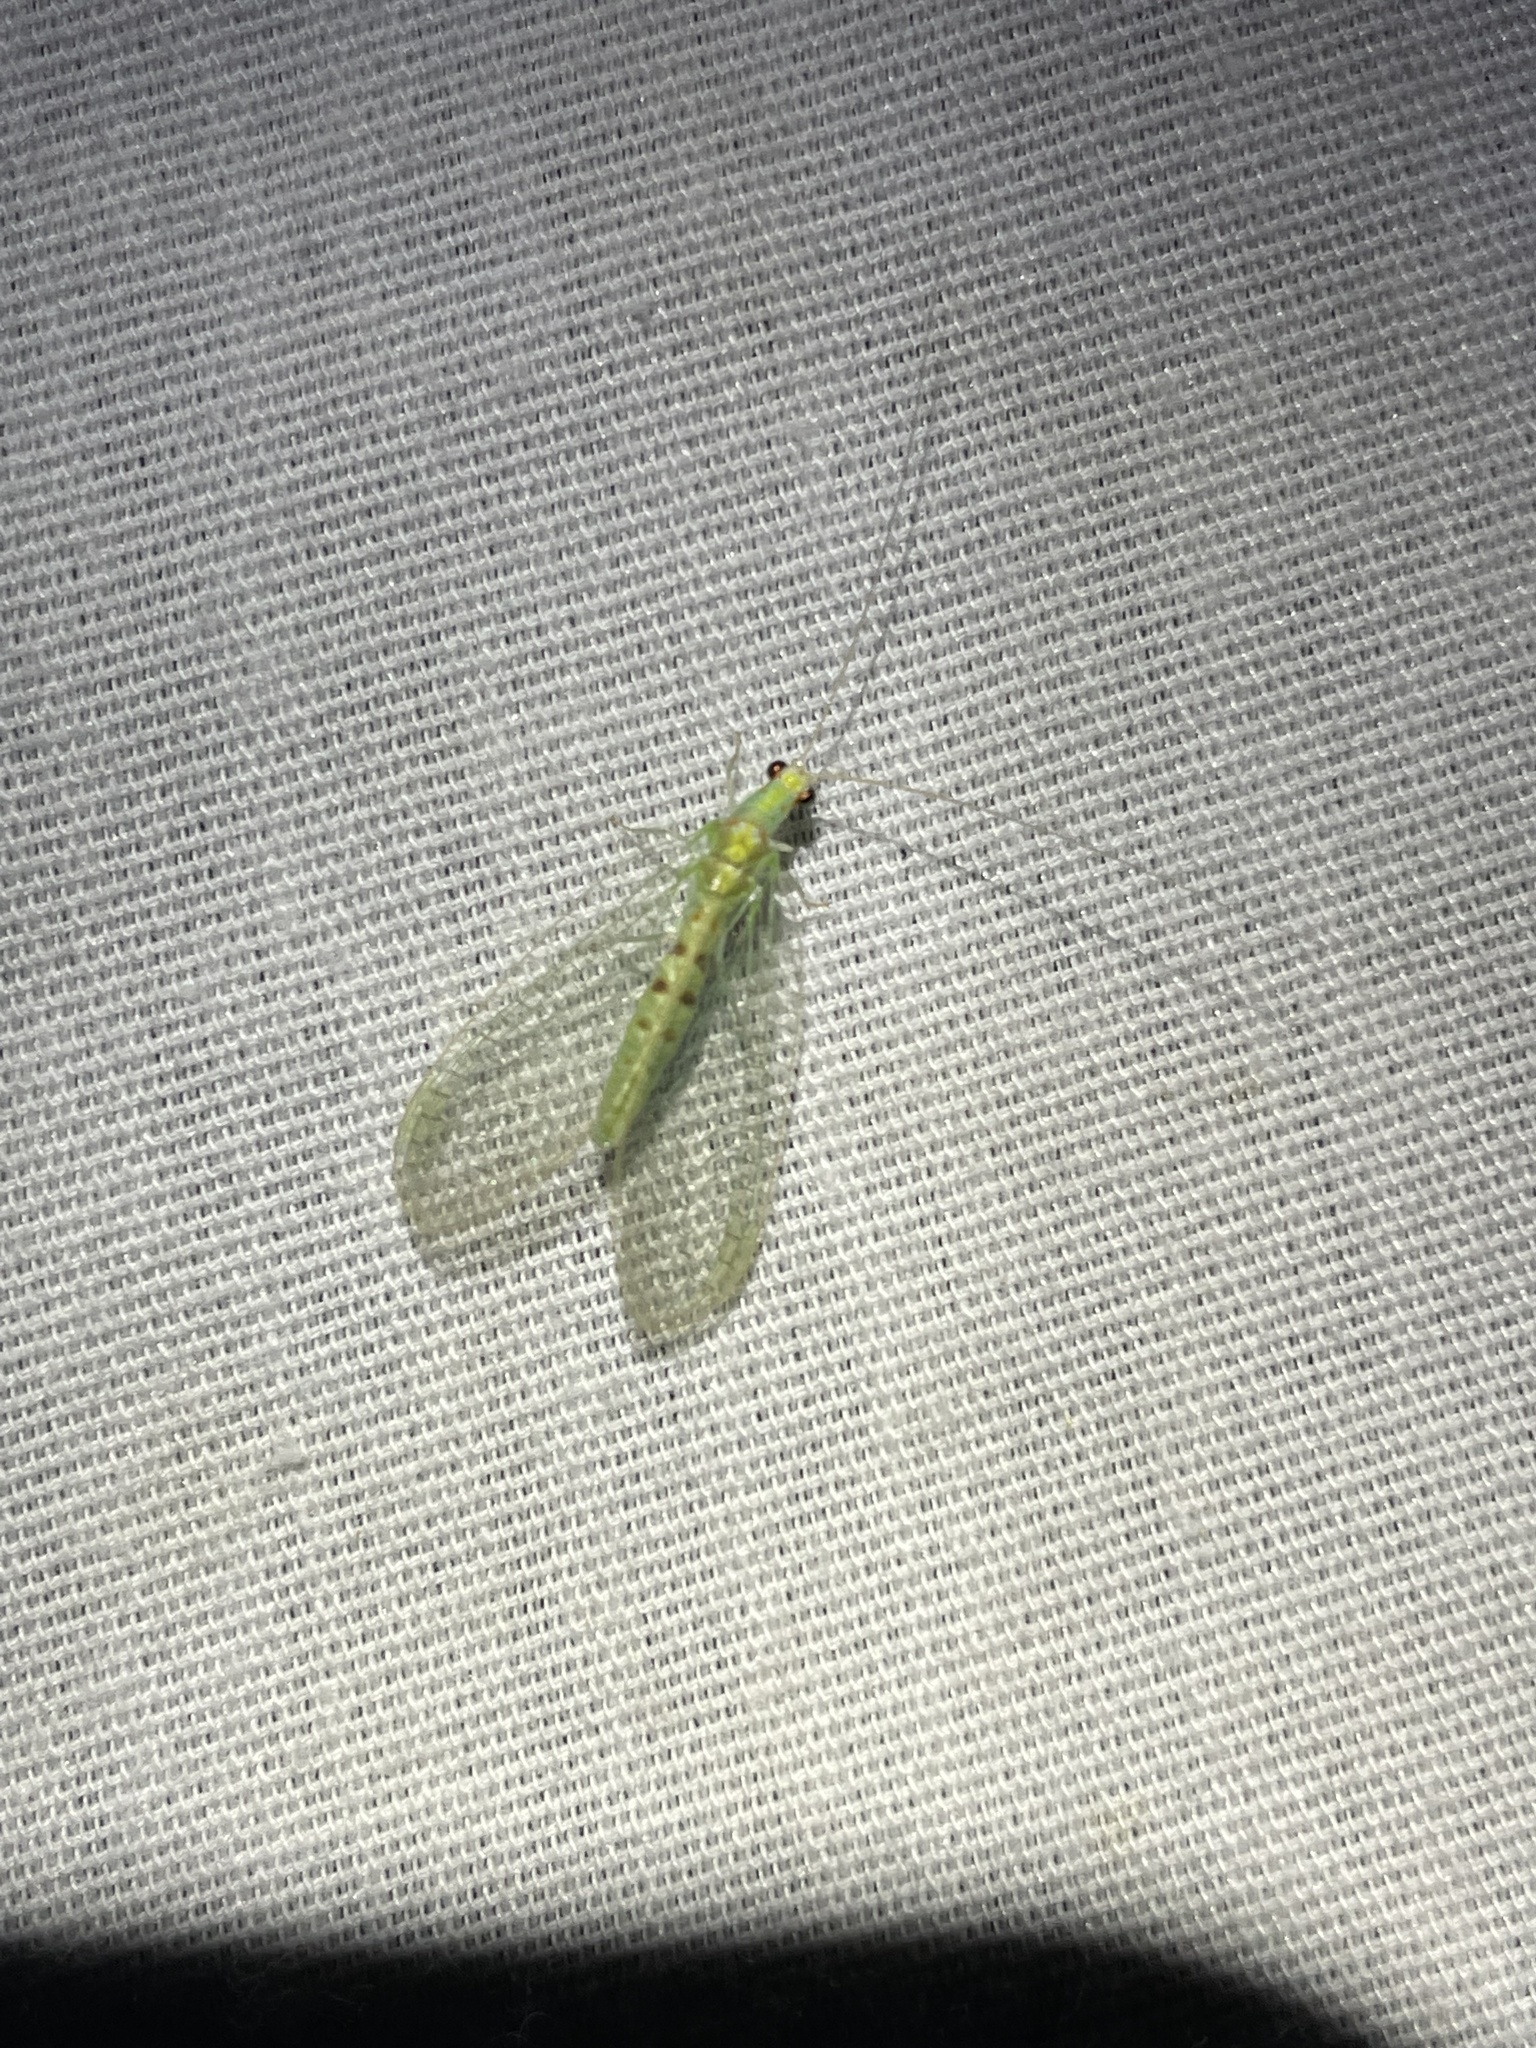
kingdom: Animalia
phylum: Arthropoda
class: Insecta
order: Neuroptera
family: Chrysopidae
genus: Chrysopa
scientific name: Chrysopa quadripunctata
